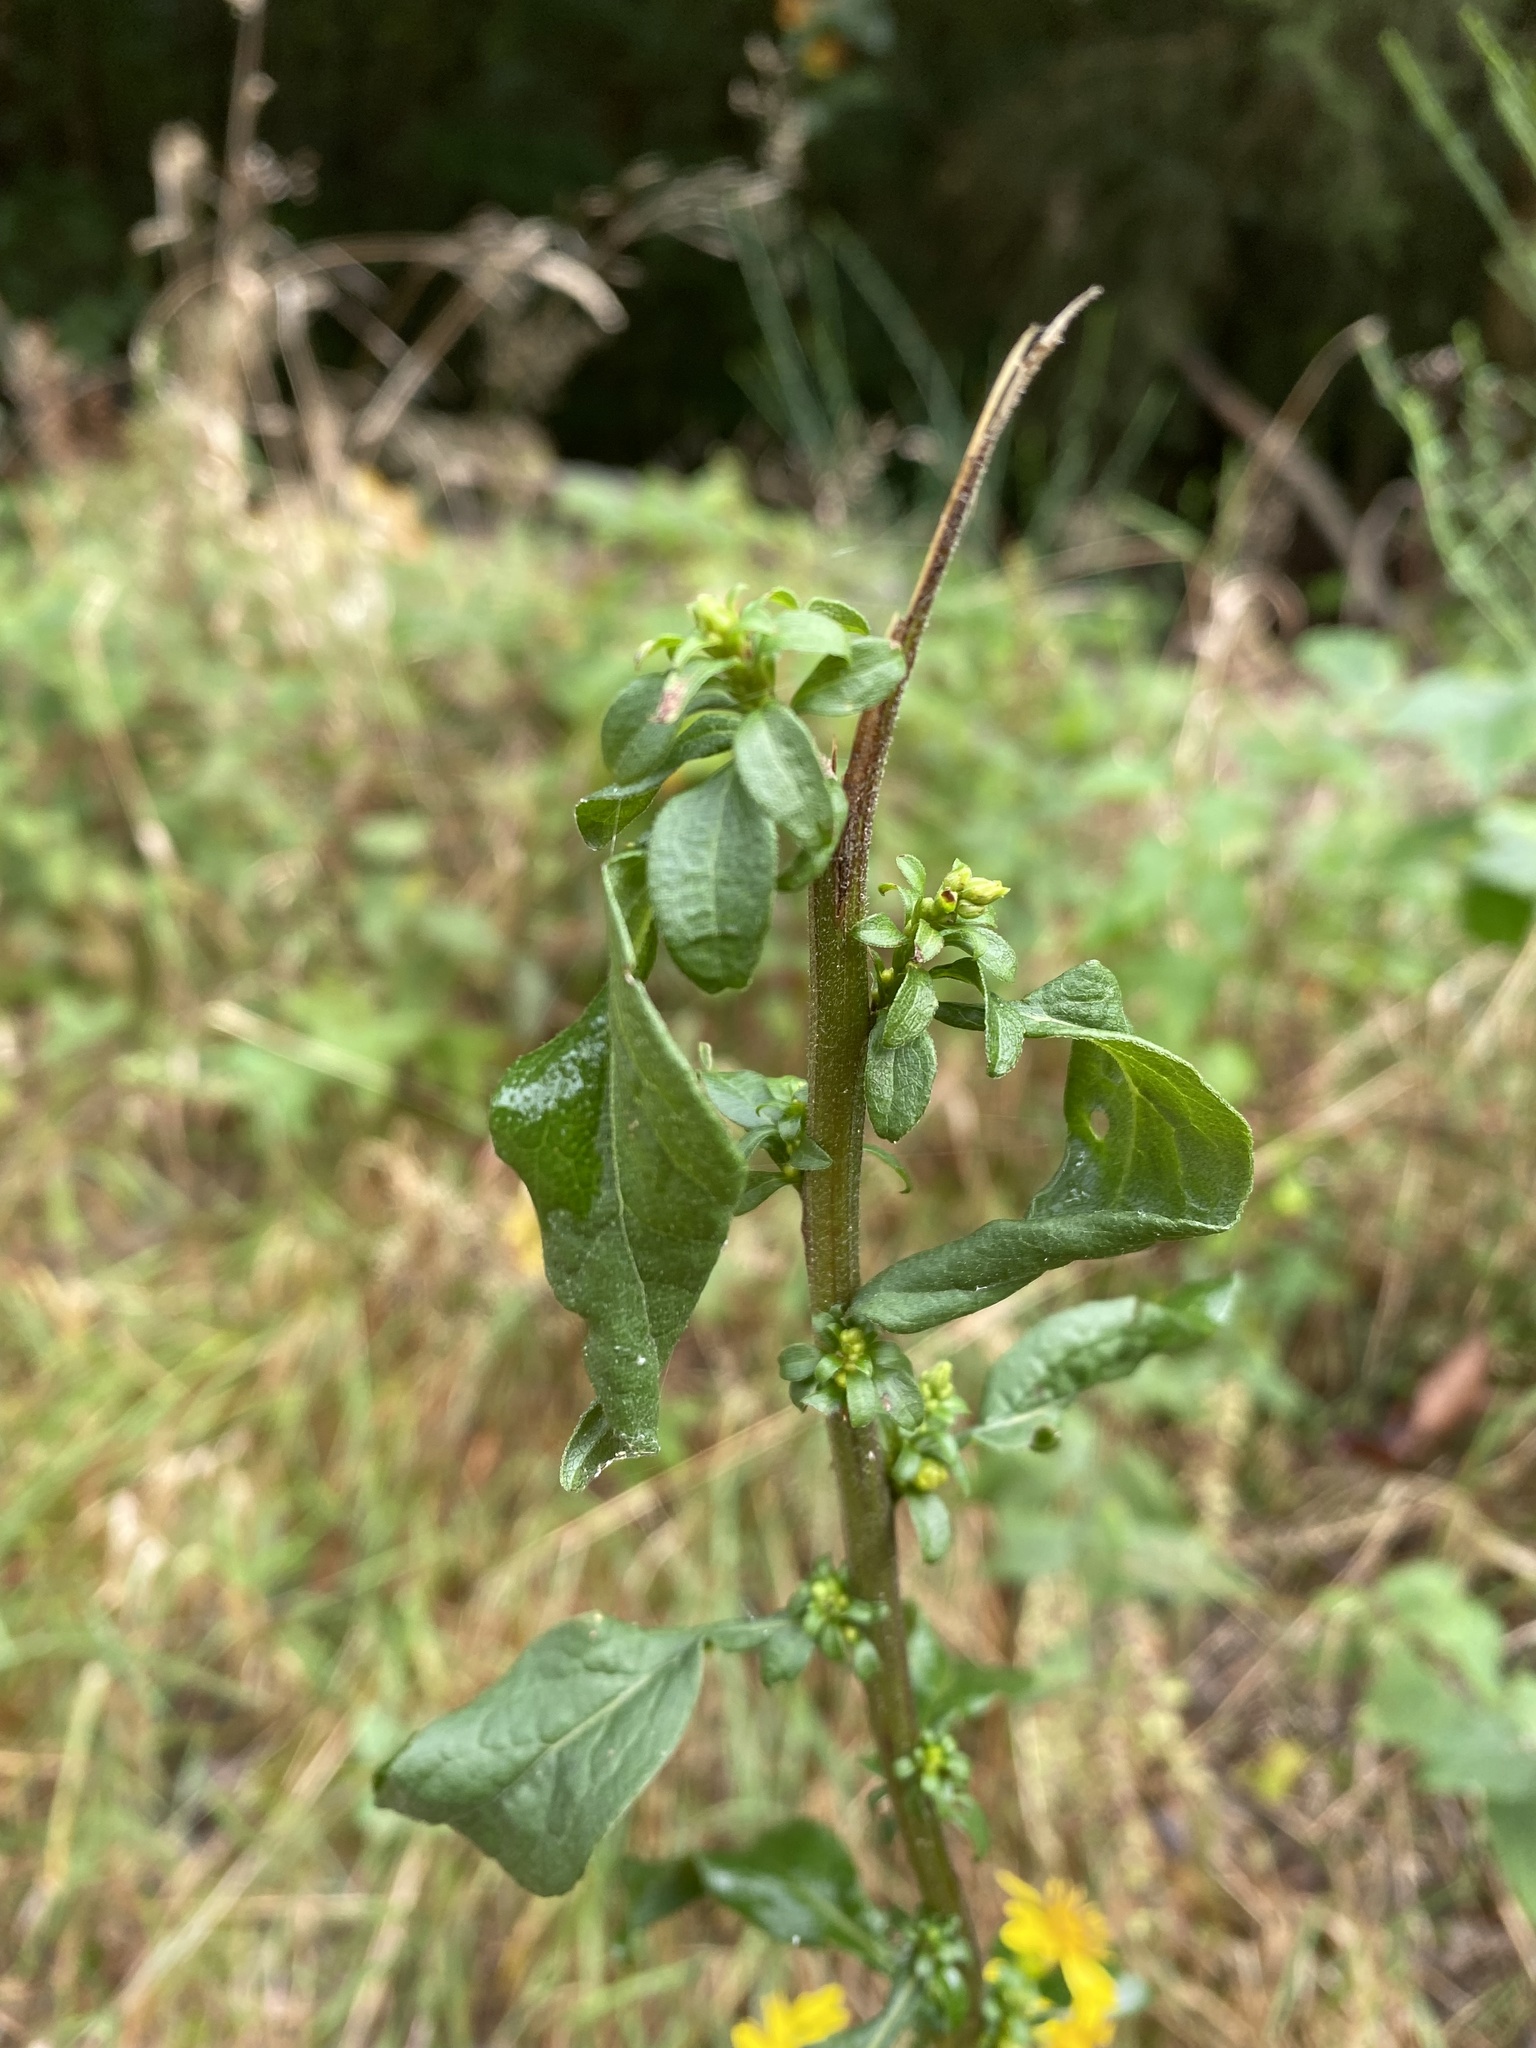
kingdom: Plantae
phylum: Tracheophyta
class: Magnoliopsida
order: Asterales
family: Asteraceae
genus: Solidago
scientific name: Solidago virgaurea
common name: Goldenrod
